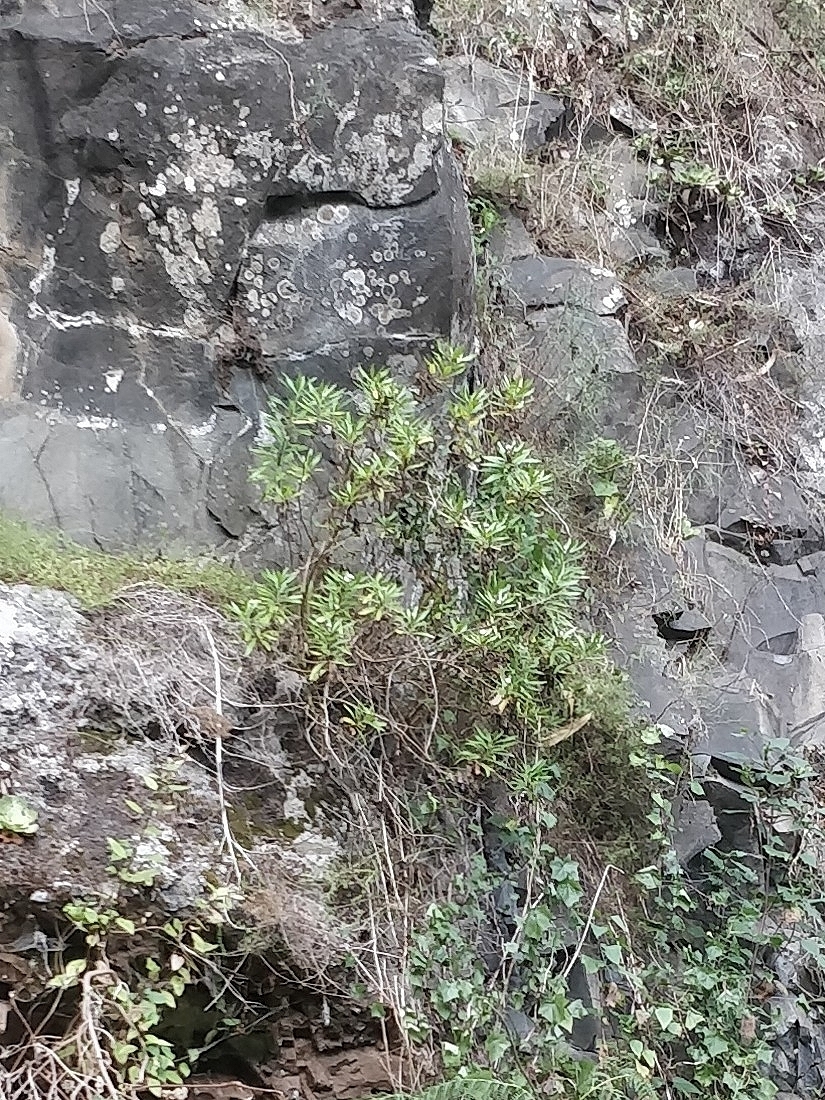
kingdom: Plantae
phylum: Tracheophyta
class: Magnoliopsida
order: Lamiales
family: Plantaginaceae
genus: Globularia
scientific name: Globularia salicina
